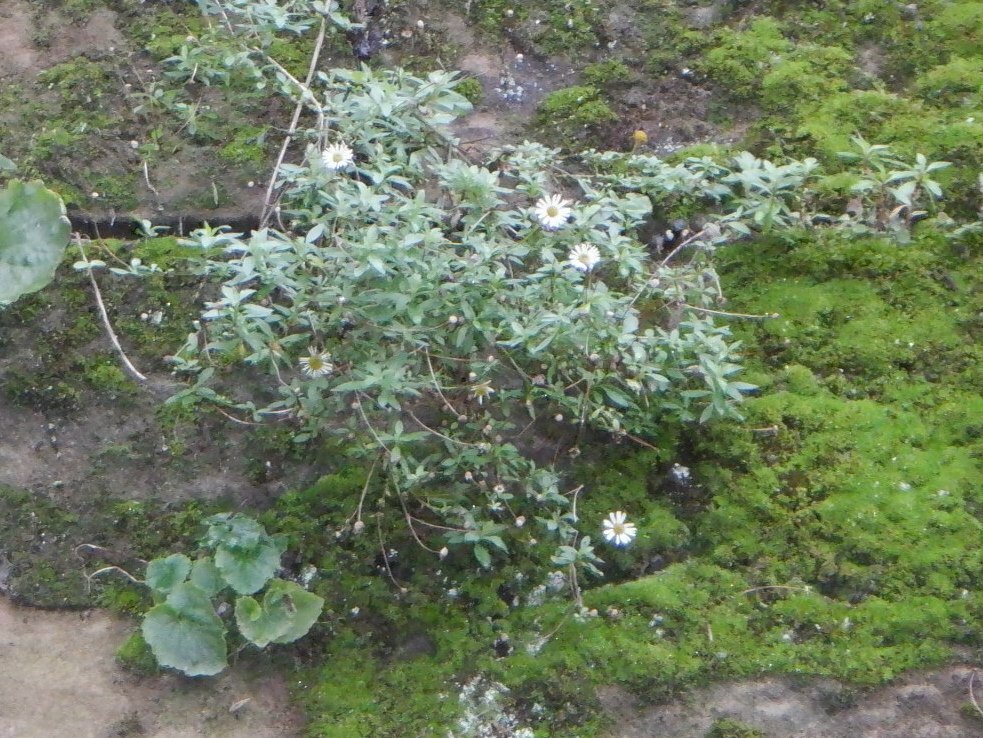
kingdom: Plantae
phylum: Tracheophyta
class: Magnoliopsida
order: Asterales
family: Asteraceae
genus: Erigeron
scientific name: Erigeron karvinskianus
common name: Mexican fleabane
